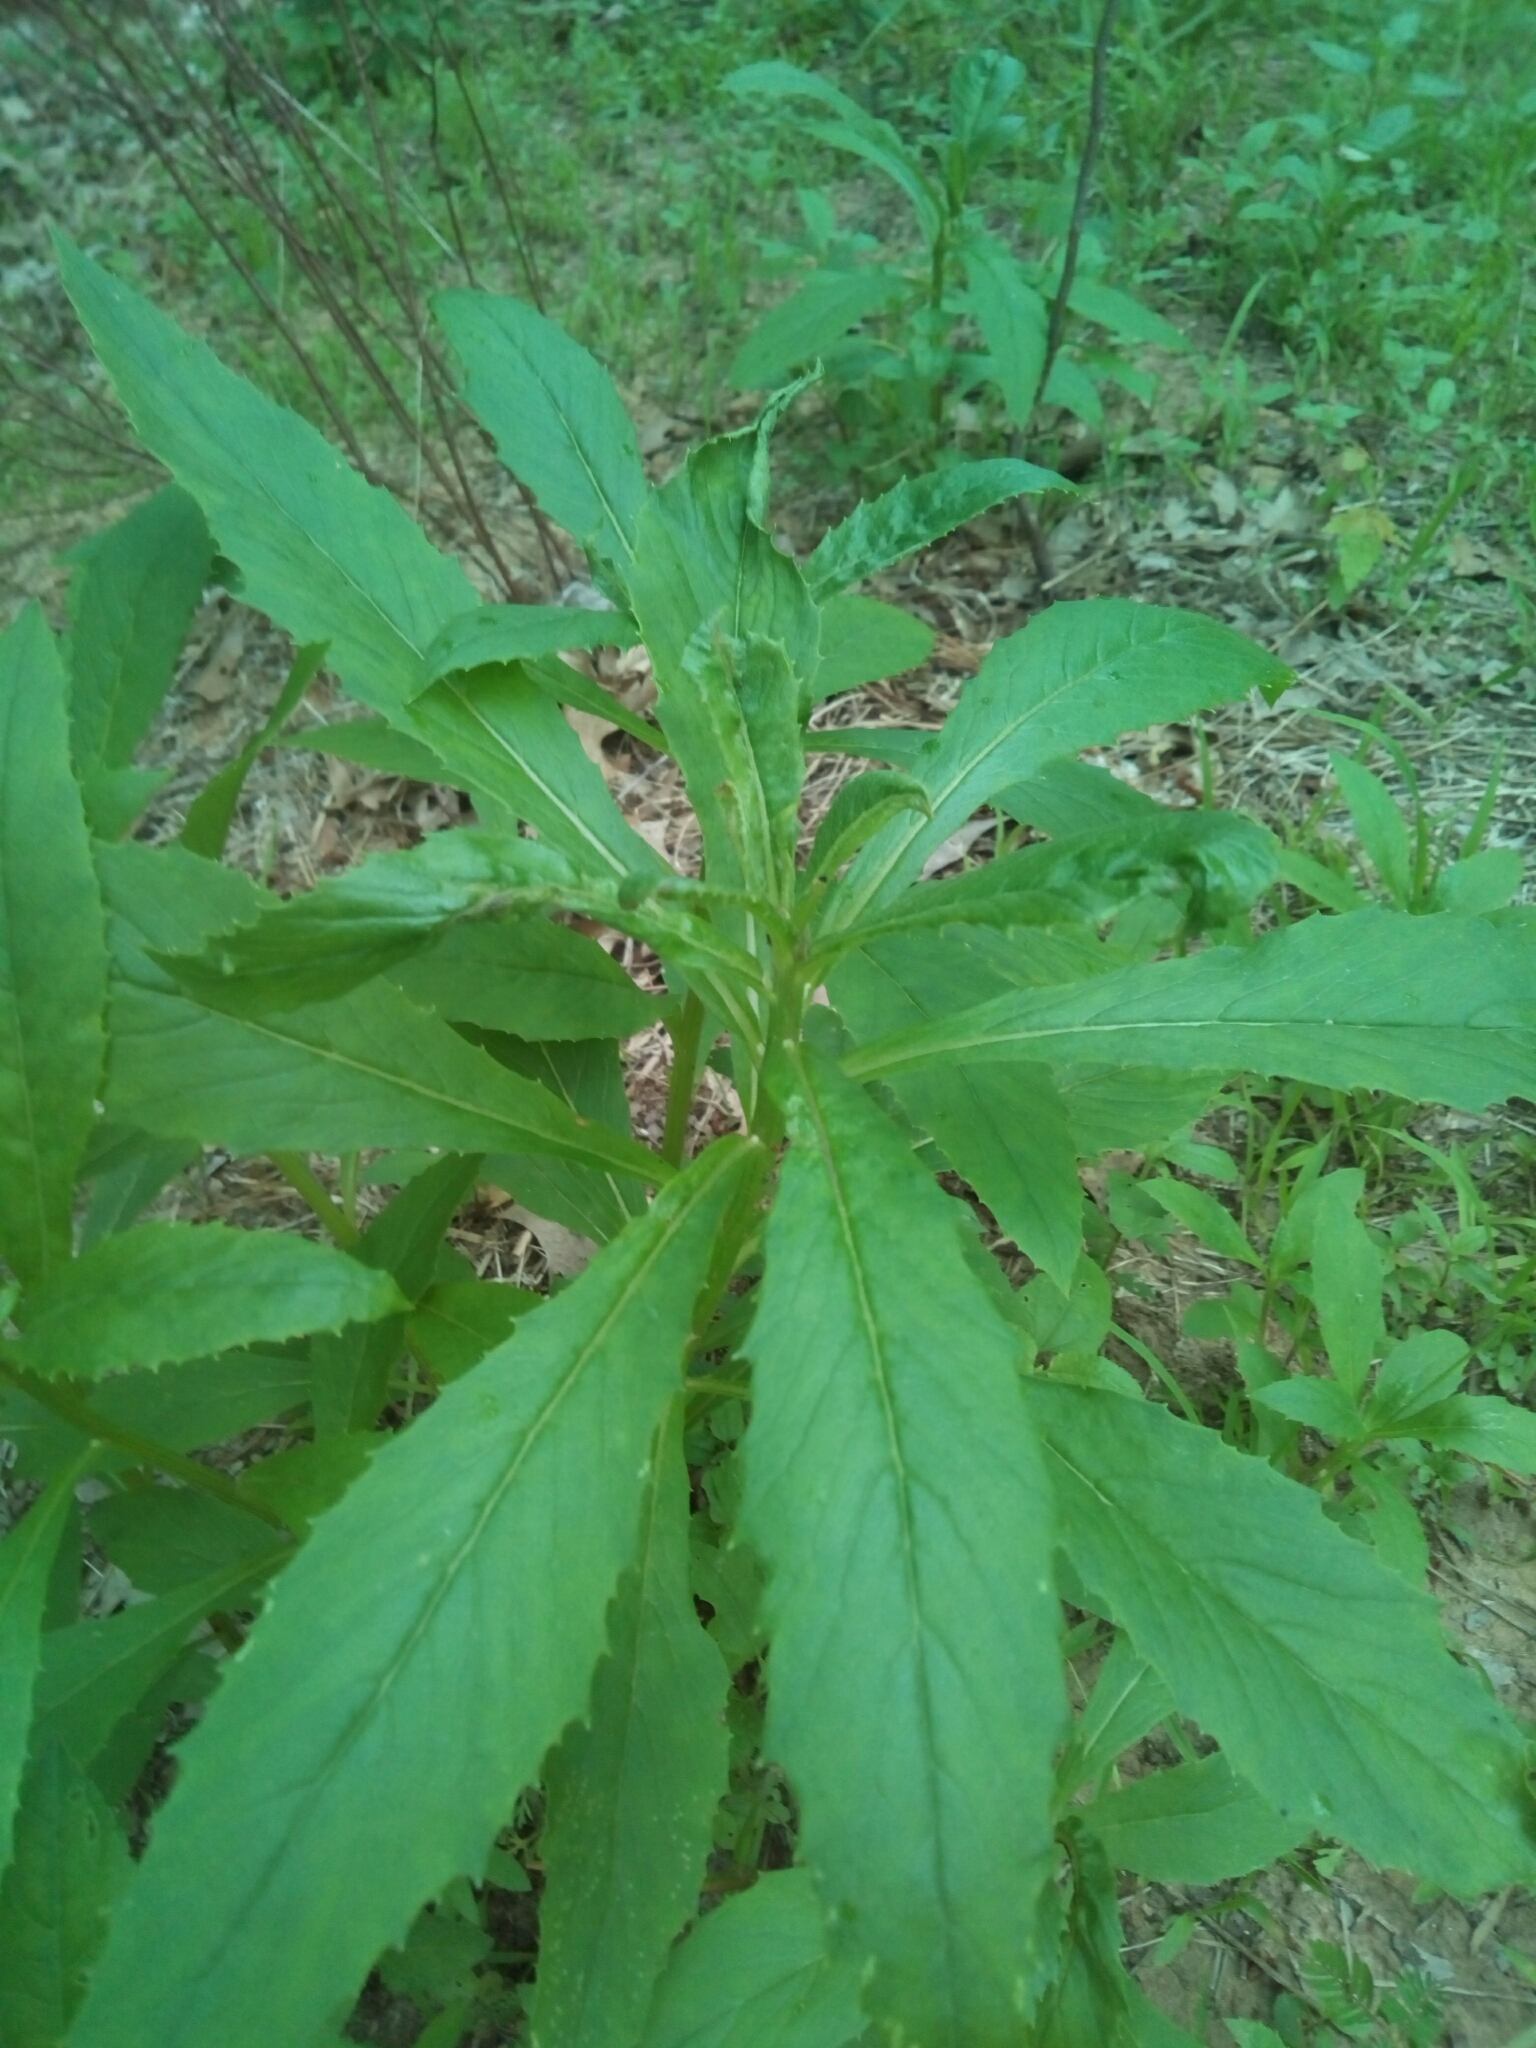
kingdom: Plantae
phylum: Tracheophyta
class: Magnoliopsida
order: Asterales
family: Asteraceae
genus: Erechtites
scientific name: Erechtites hieraciifolius
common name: American burnweed
